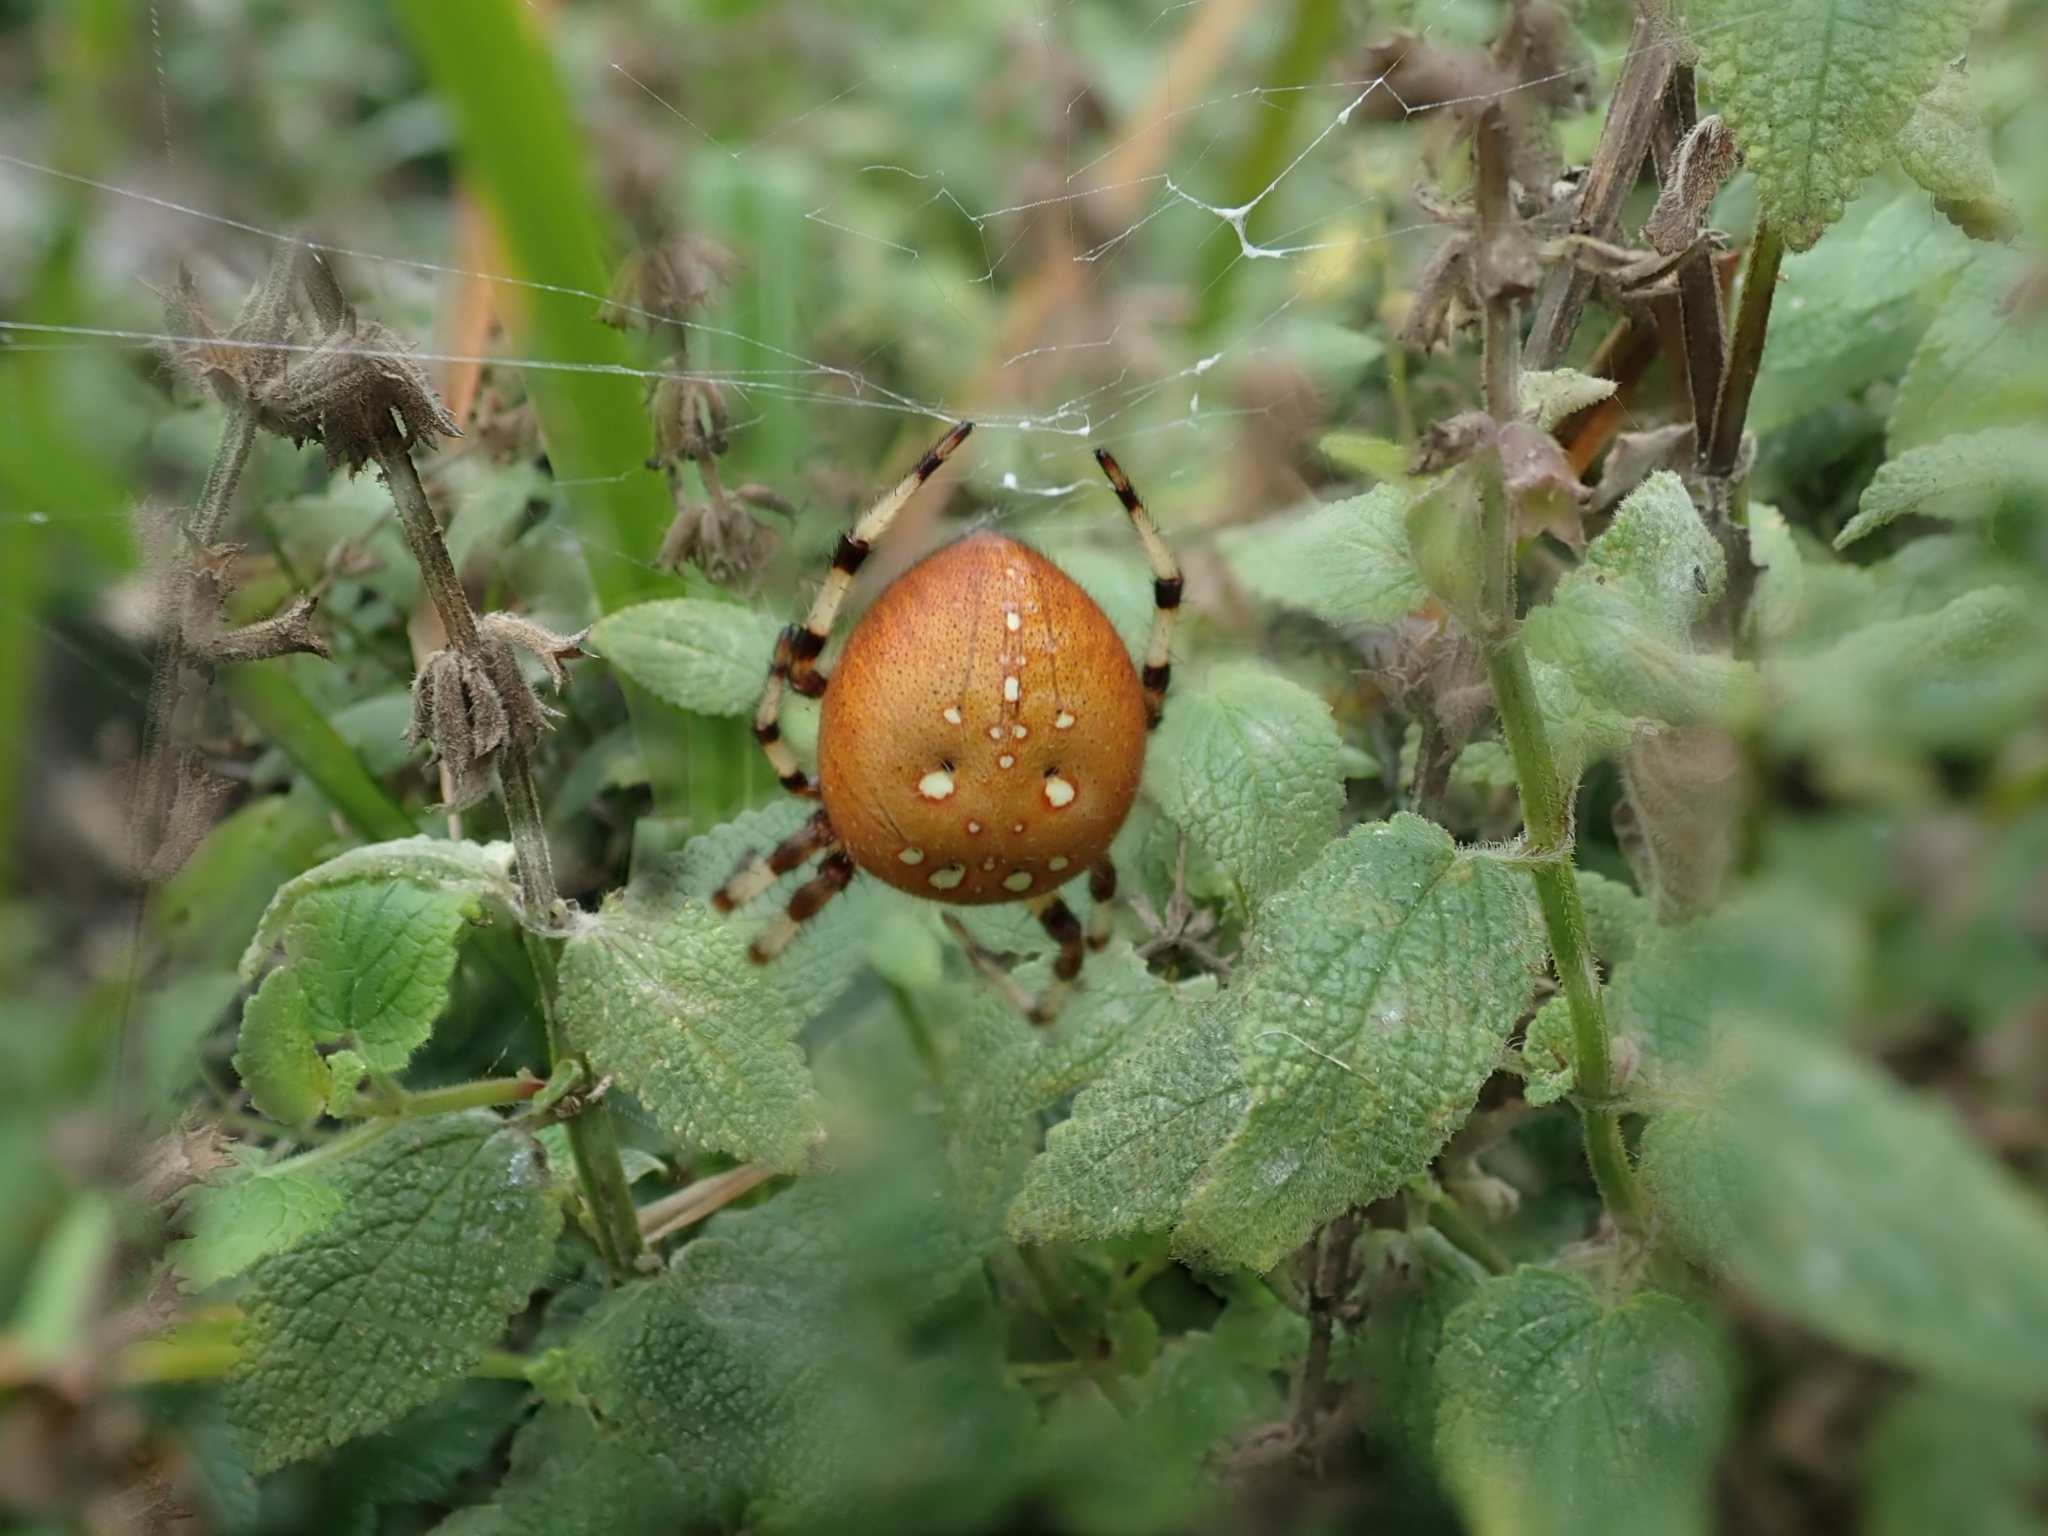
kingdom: Animalia
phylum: Arthropoda
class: Arachnida
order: Araneae
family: Araneidae
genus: Araneus
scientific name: Araneus trifolium
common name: Shamrock orbweaver
